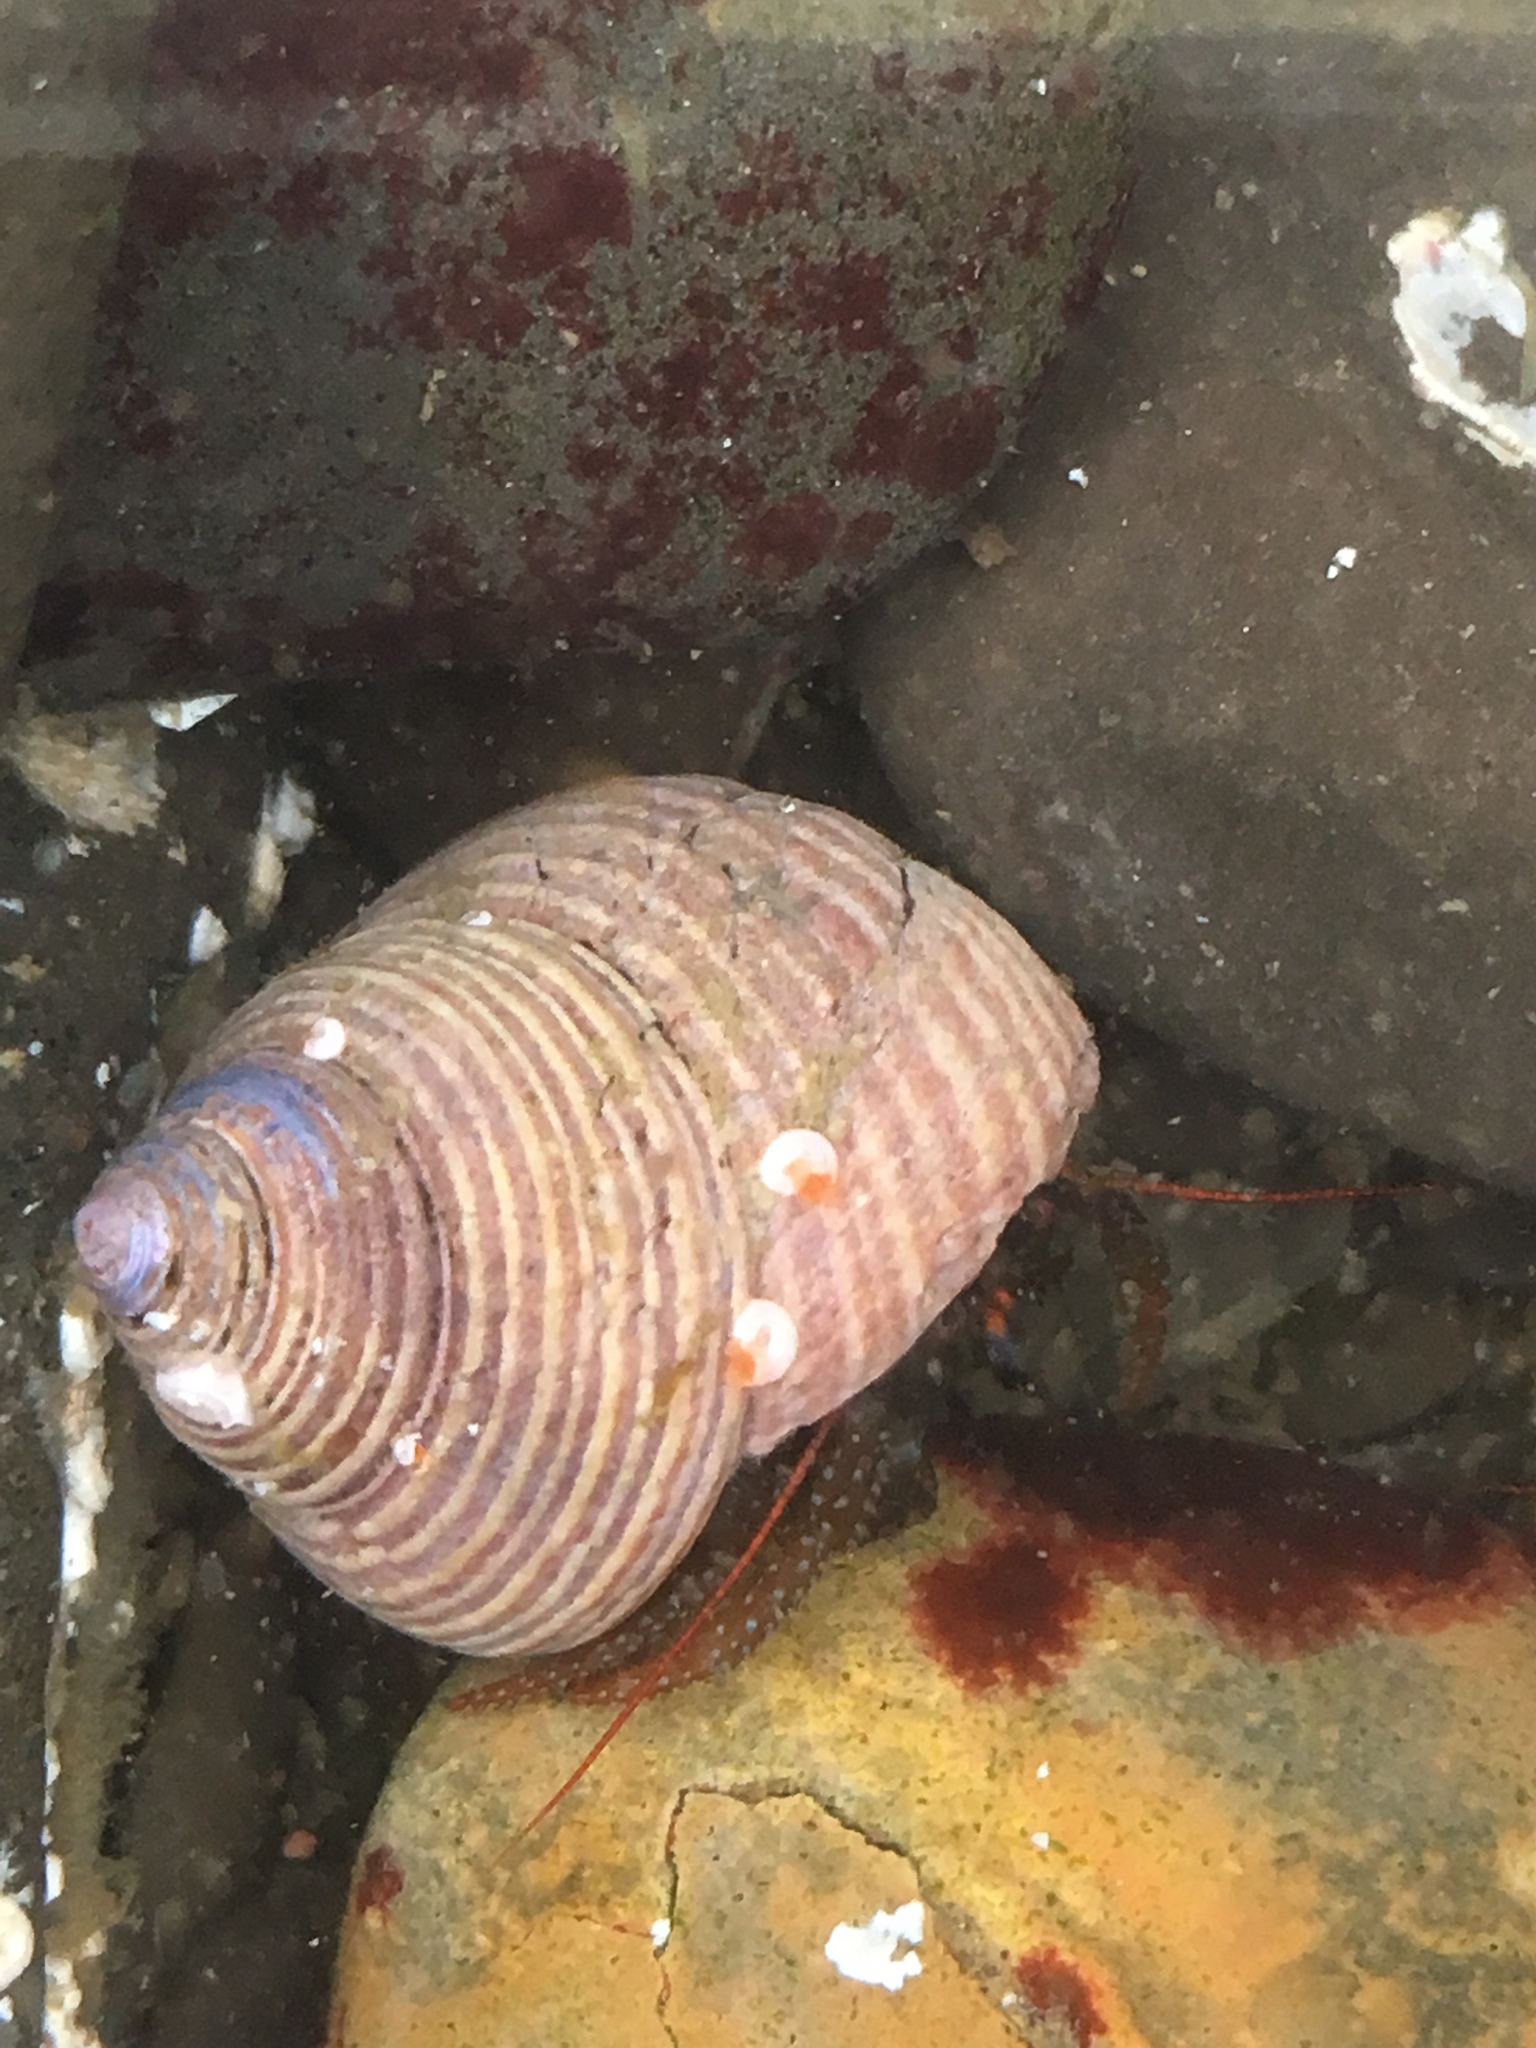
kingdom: Animalia
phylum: Arthropoda
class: Malacostraca
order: Decapoda
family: Paguridae
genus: Pagurus
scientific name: Pagurus granosimanus
